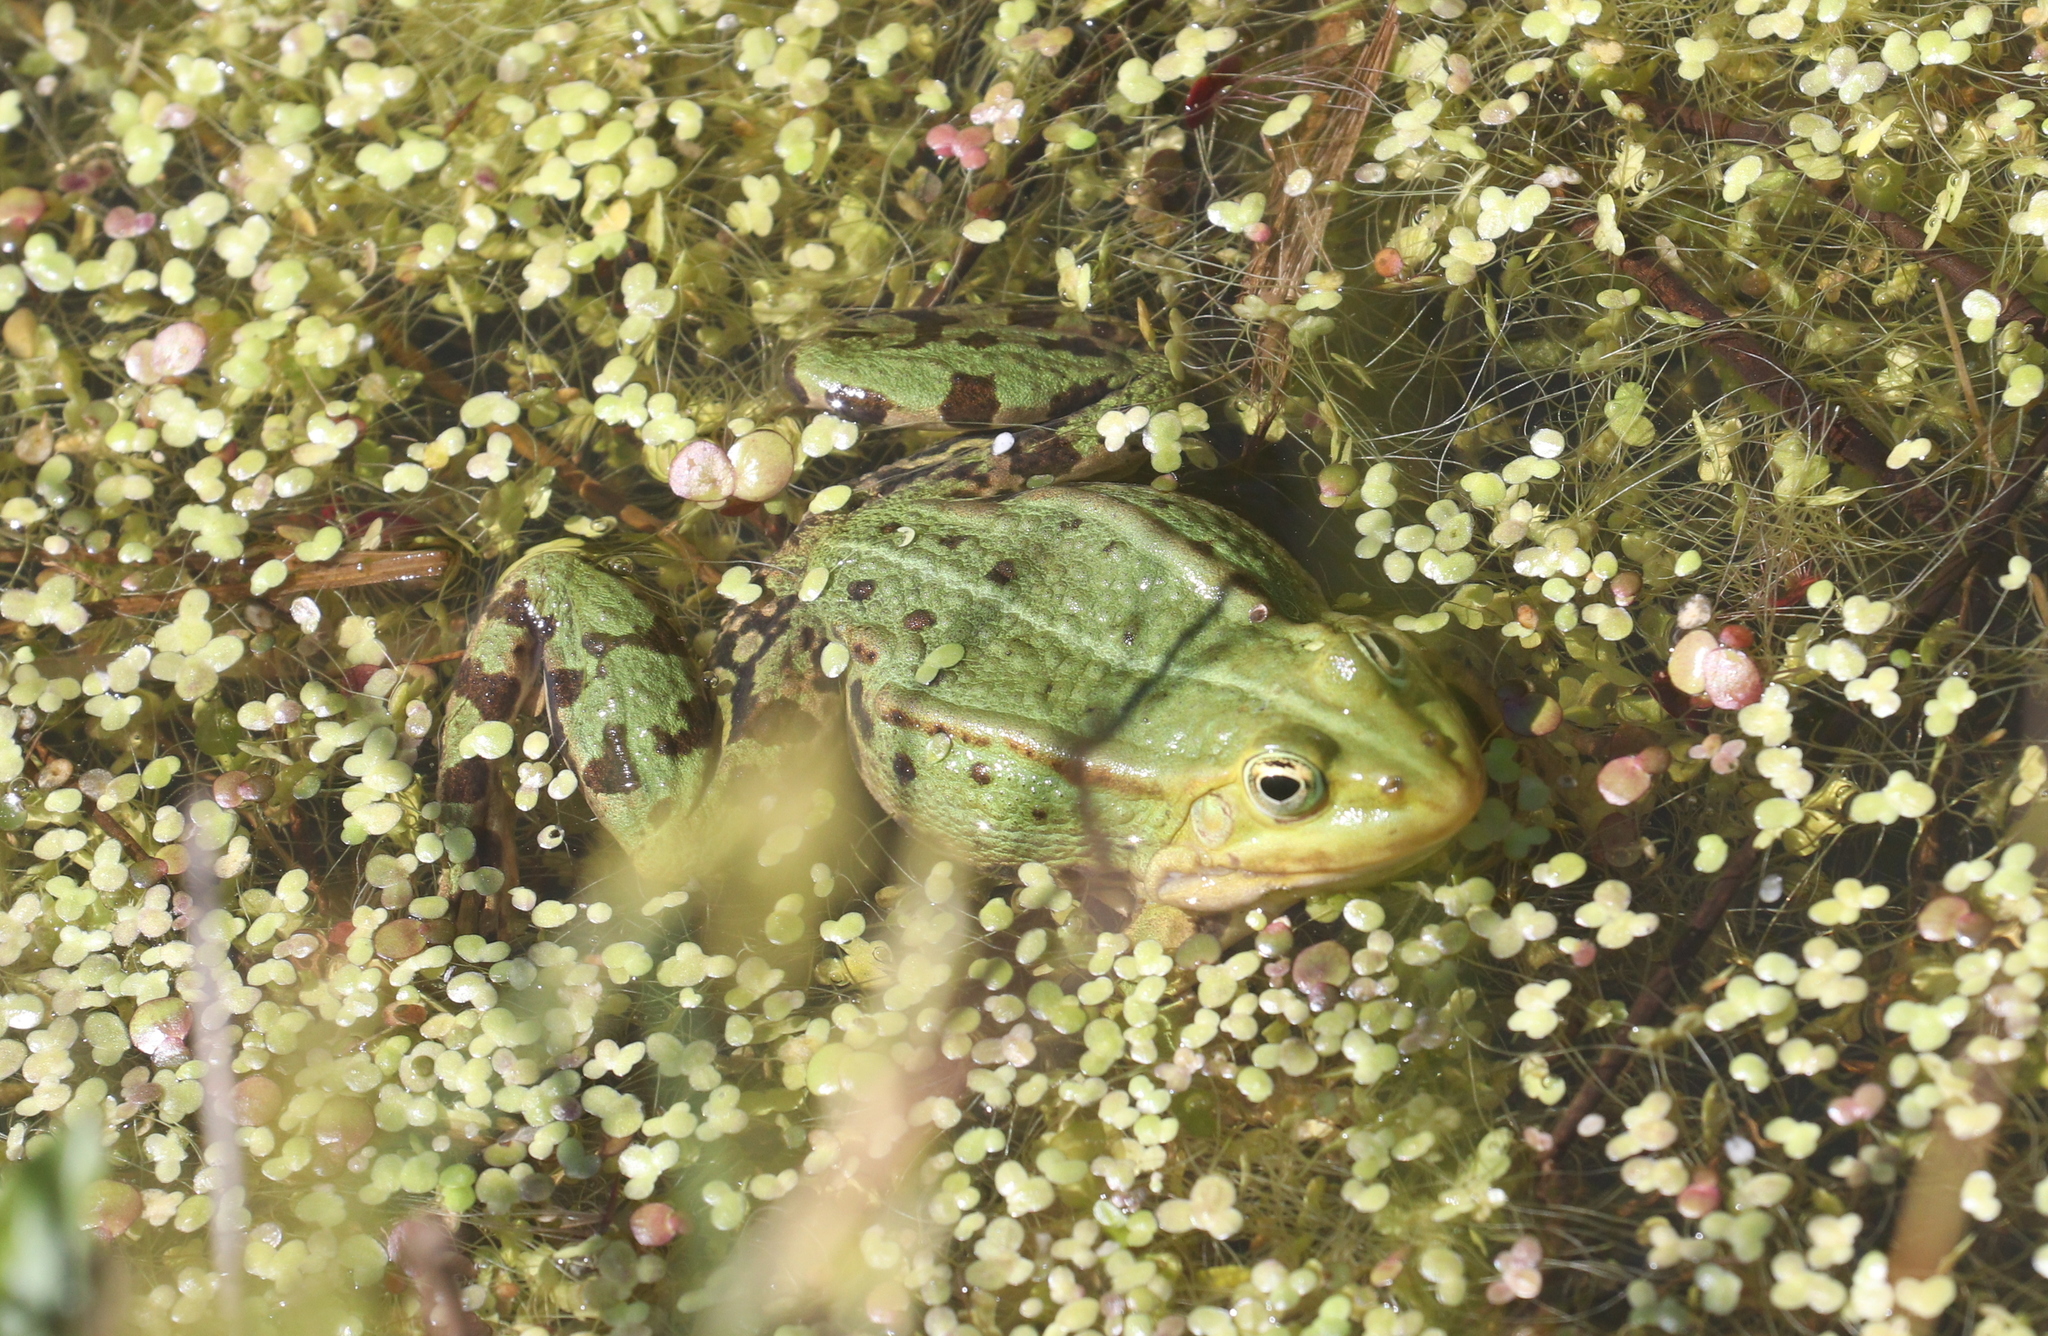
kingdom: Animalia
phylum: Chordata
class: Amphibia
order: Anura
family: Ranidae
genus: Pelophylax
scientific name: Pelophylax
